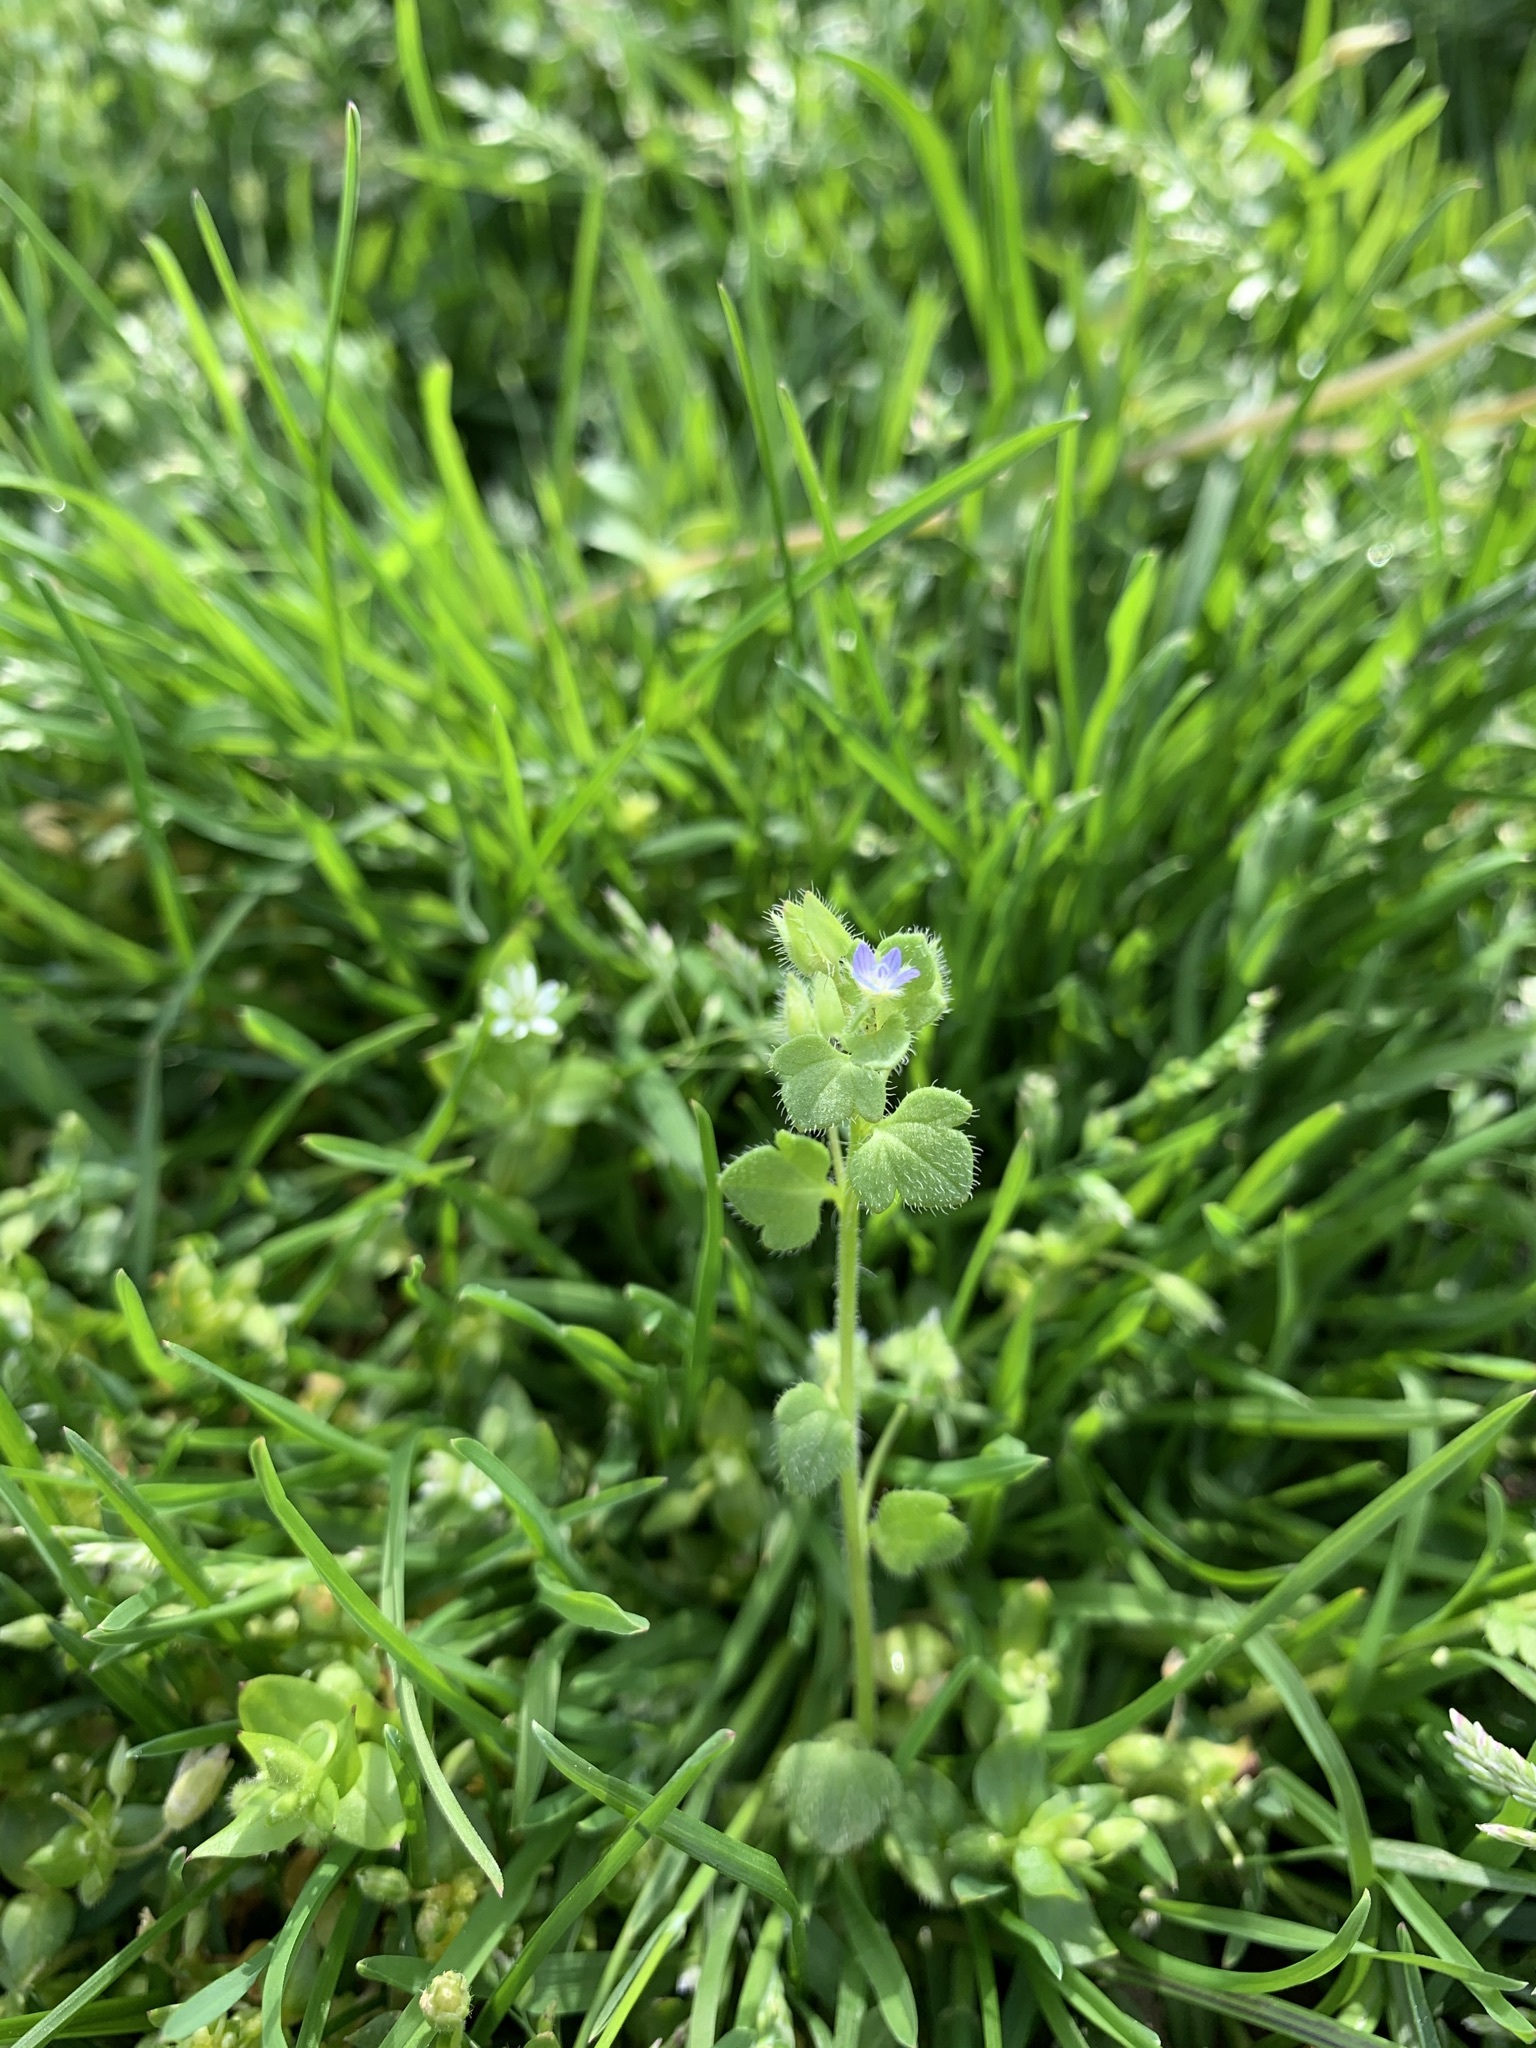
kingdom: Plantae
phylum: Tracheophyta
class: Magnoliopsida
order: Lamiales
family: Plantaginaceae
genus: Veronica
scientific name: Veronica hederifolia
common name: Ivy-leaved speedwell
